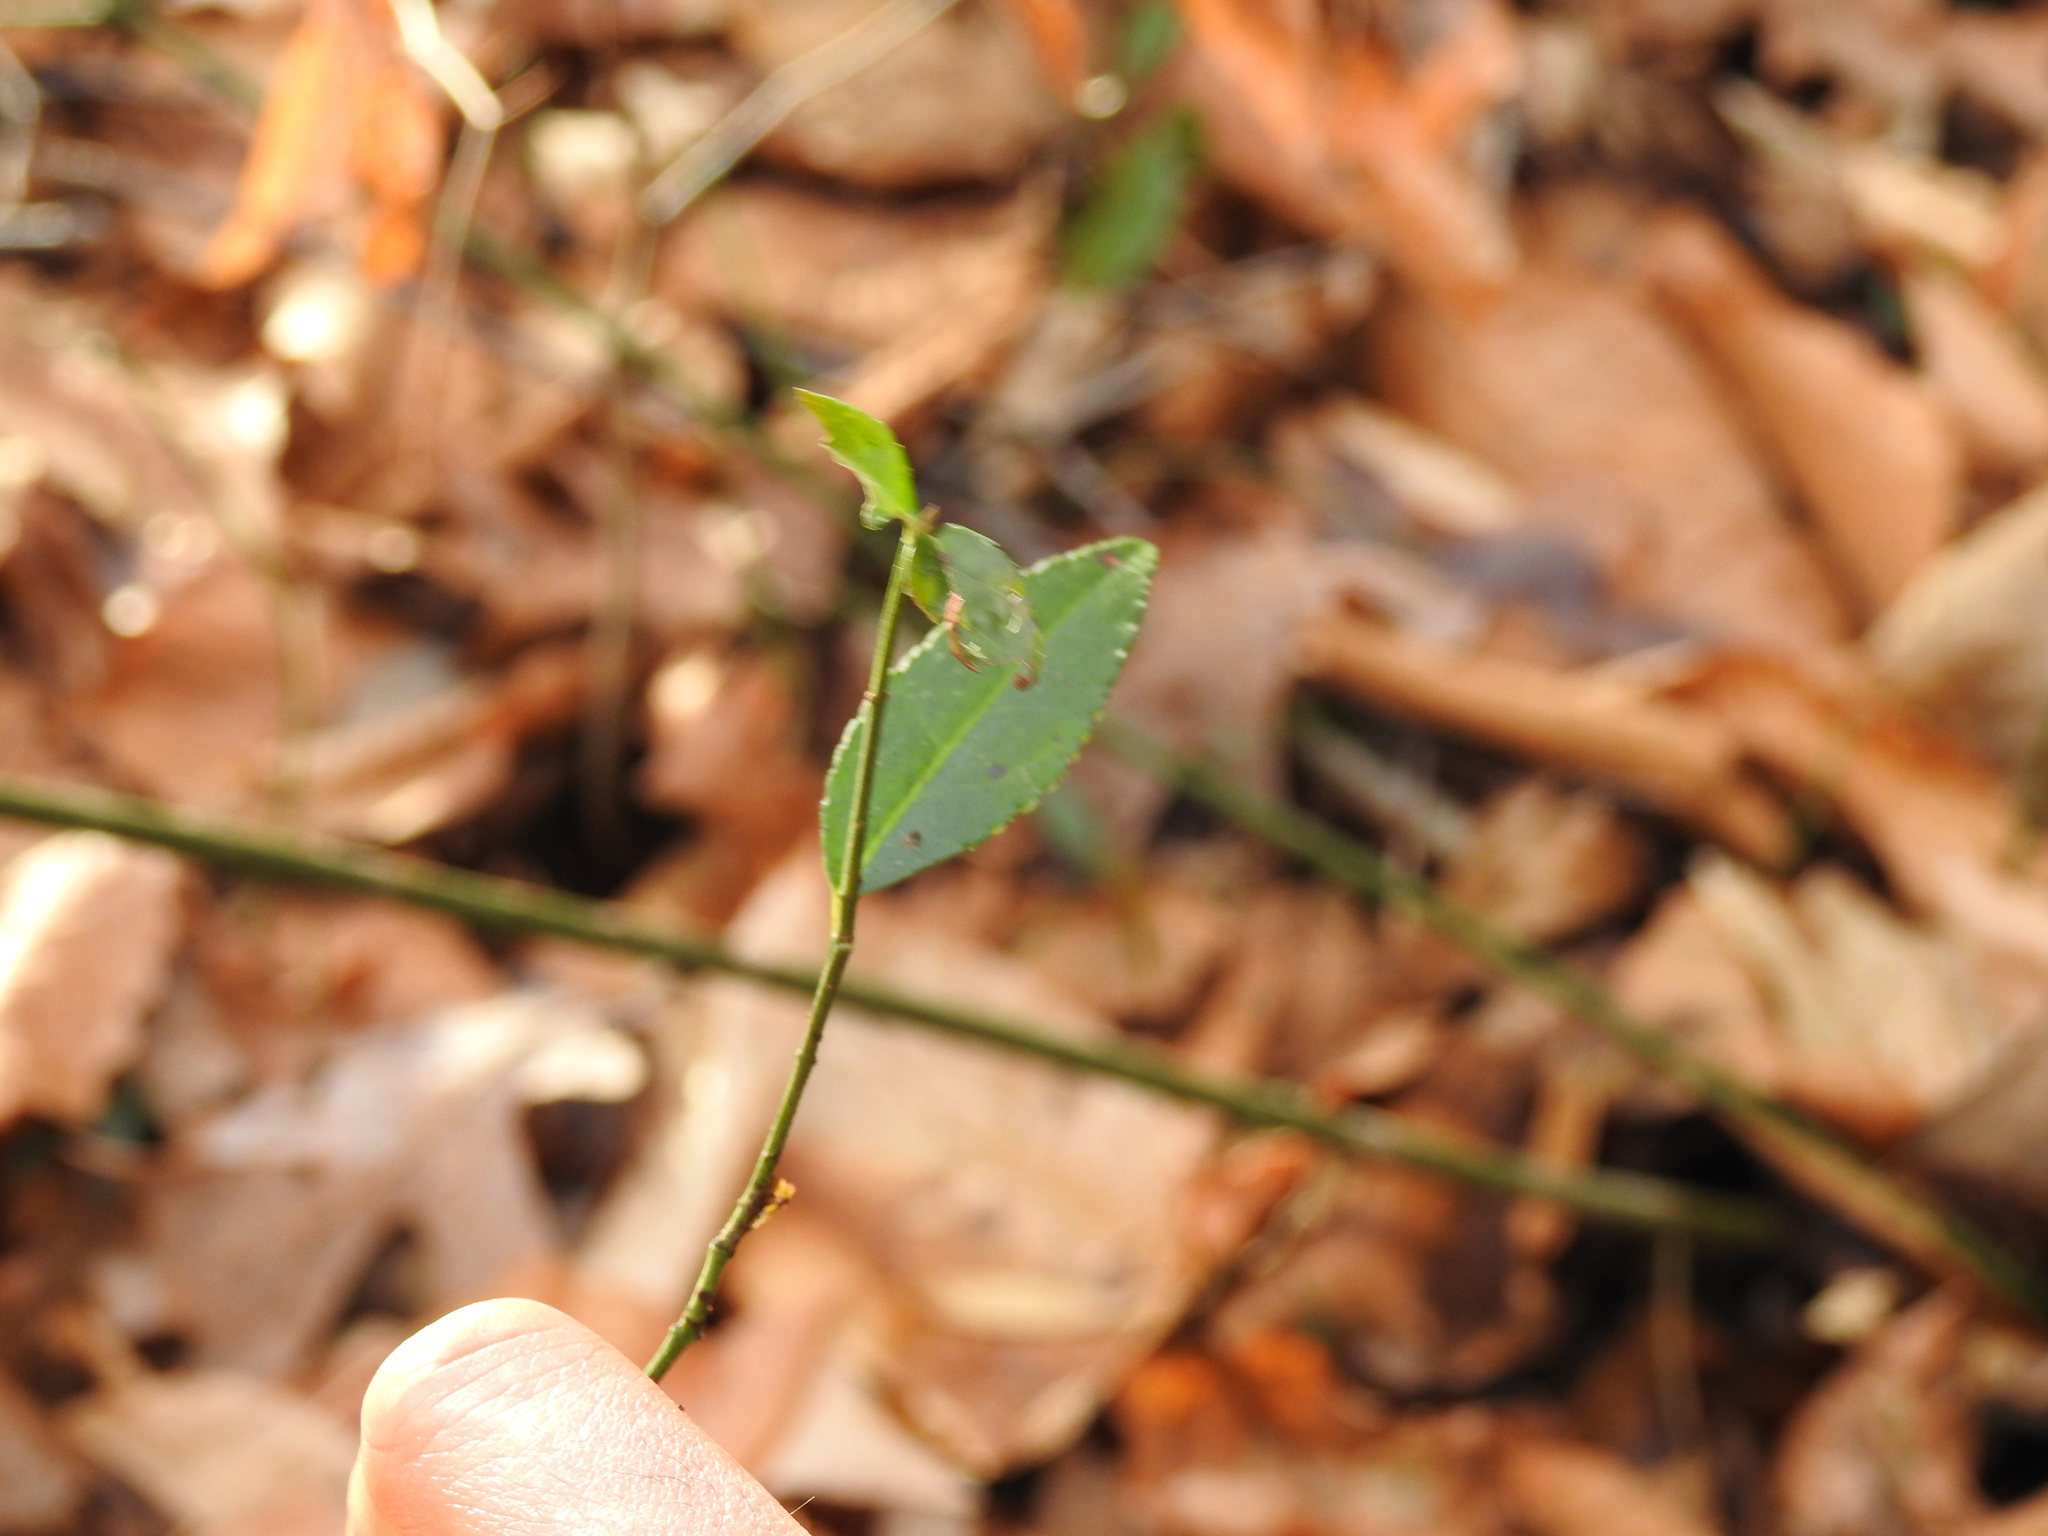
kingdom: Plantae
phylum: Tracheophyta
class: Magnoliopsida
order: Celastrales
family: Celastraceae
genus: Euonymus
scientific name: Euonymus americanus
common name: Bursting-heart
